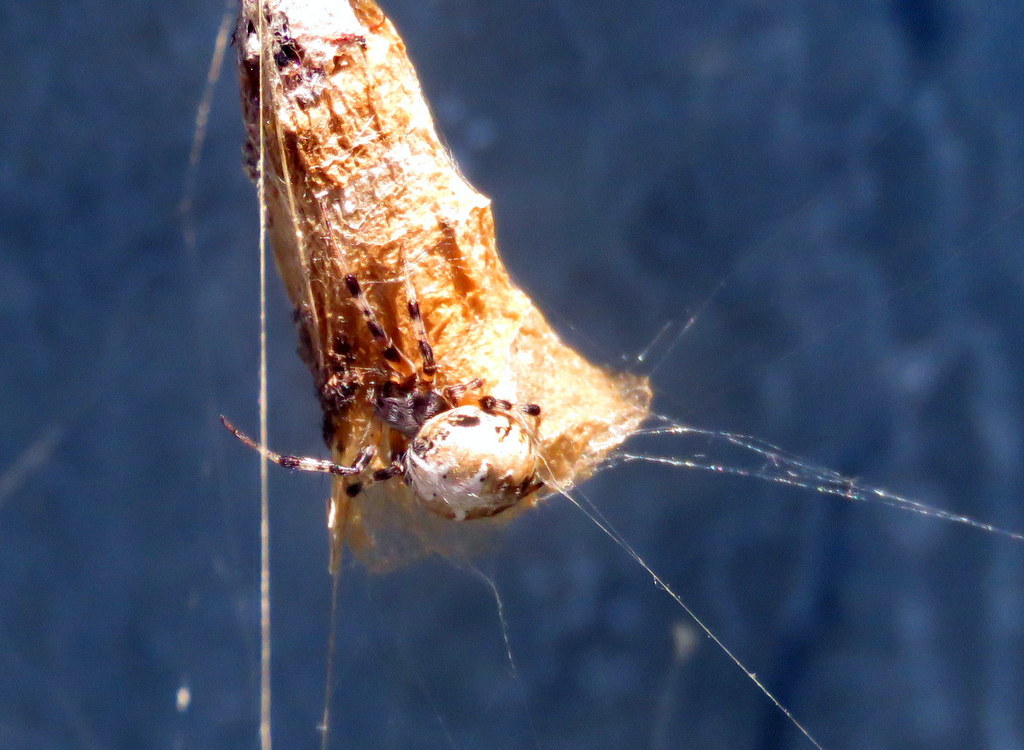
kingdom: Animalia
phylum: Arthropoda
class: Arachnida
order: Araneae
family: Araneidae
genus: Metepeira
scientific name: Metepeira
